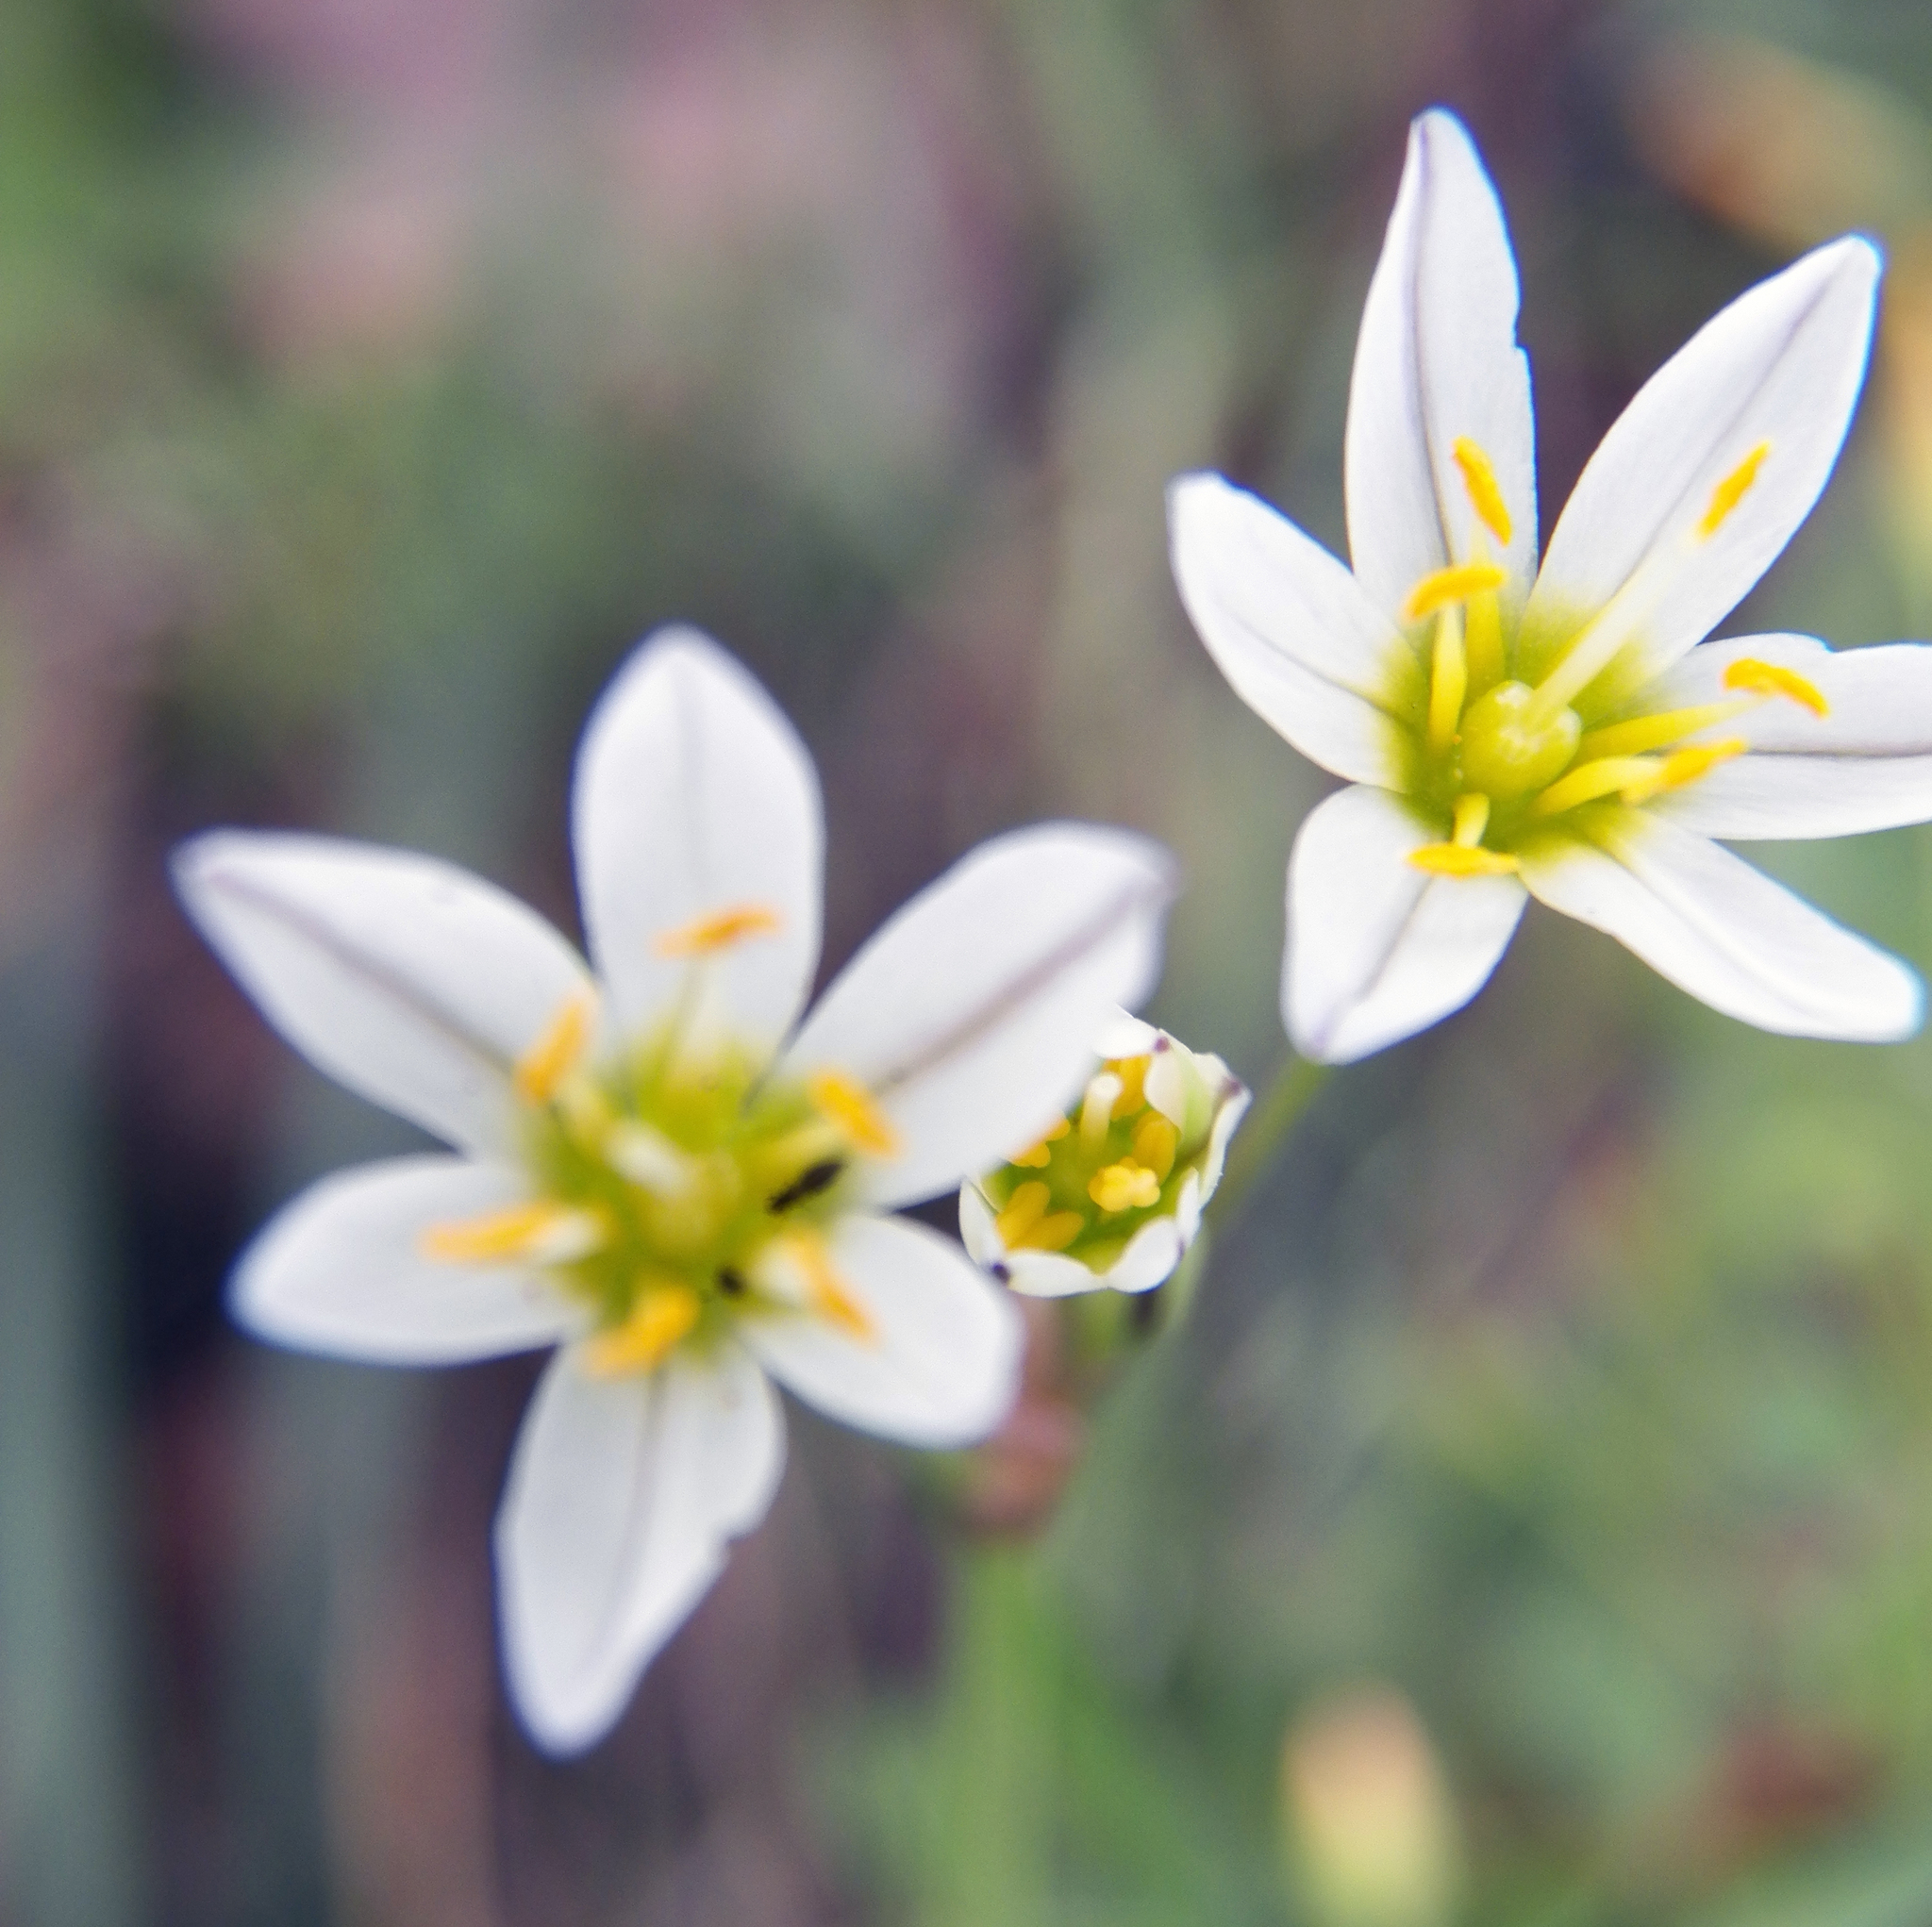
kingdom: Plantae
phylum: Tracheophyta
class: Liliopsida
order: Asparagales
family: Amaryllidaceae
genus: Nothoscordum
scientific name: Nothoscordum bivalve
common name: Crow-poison
